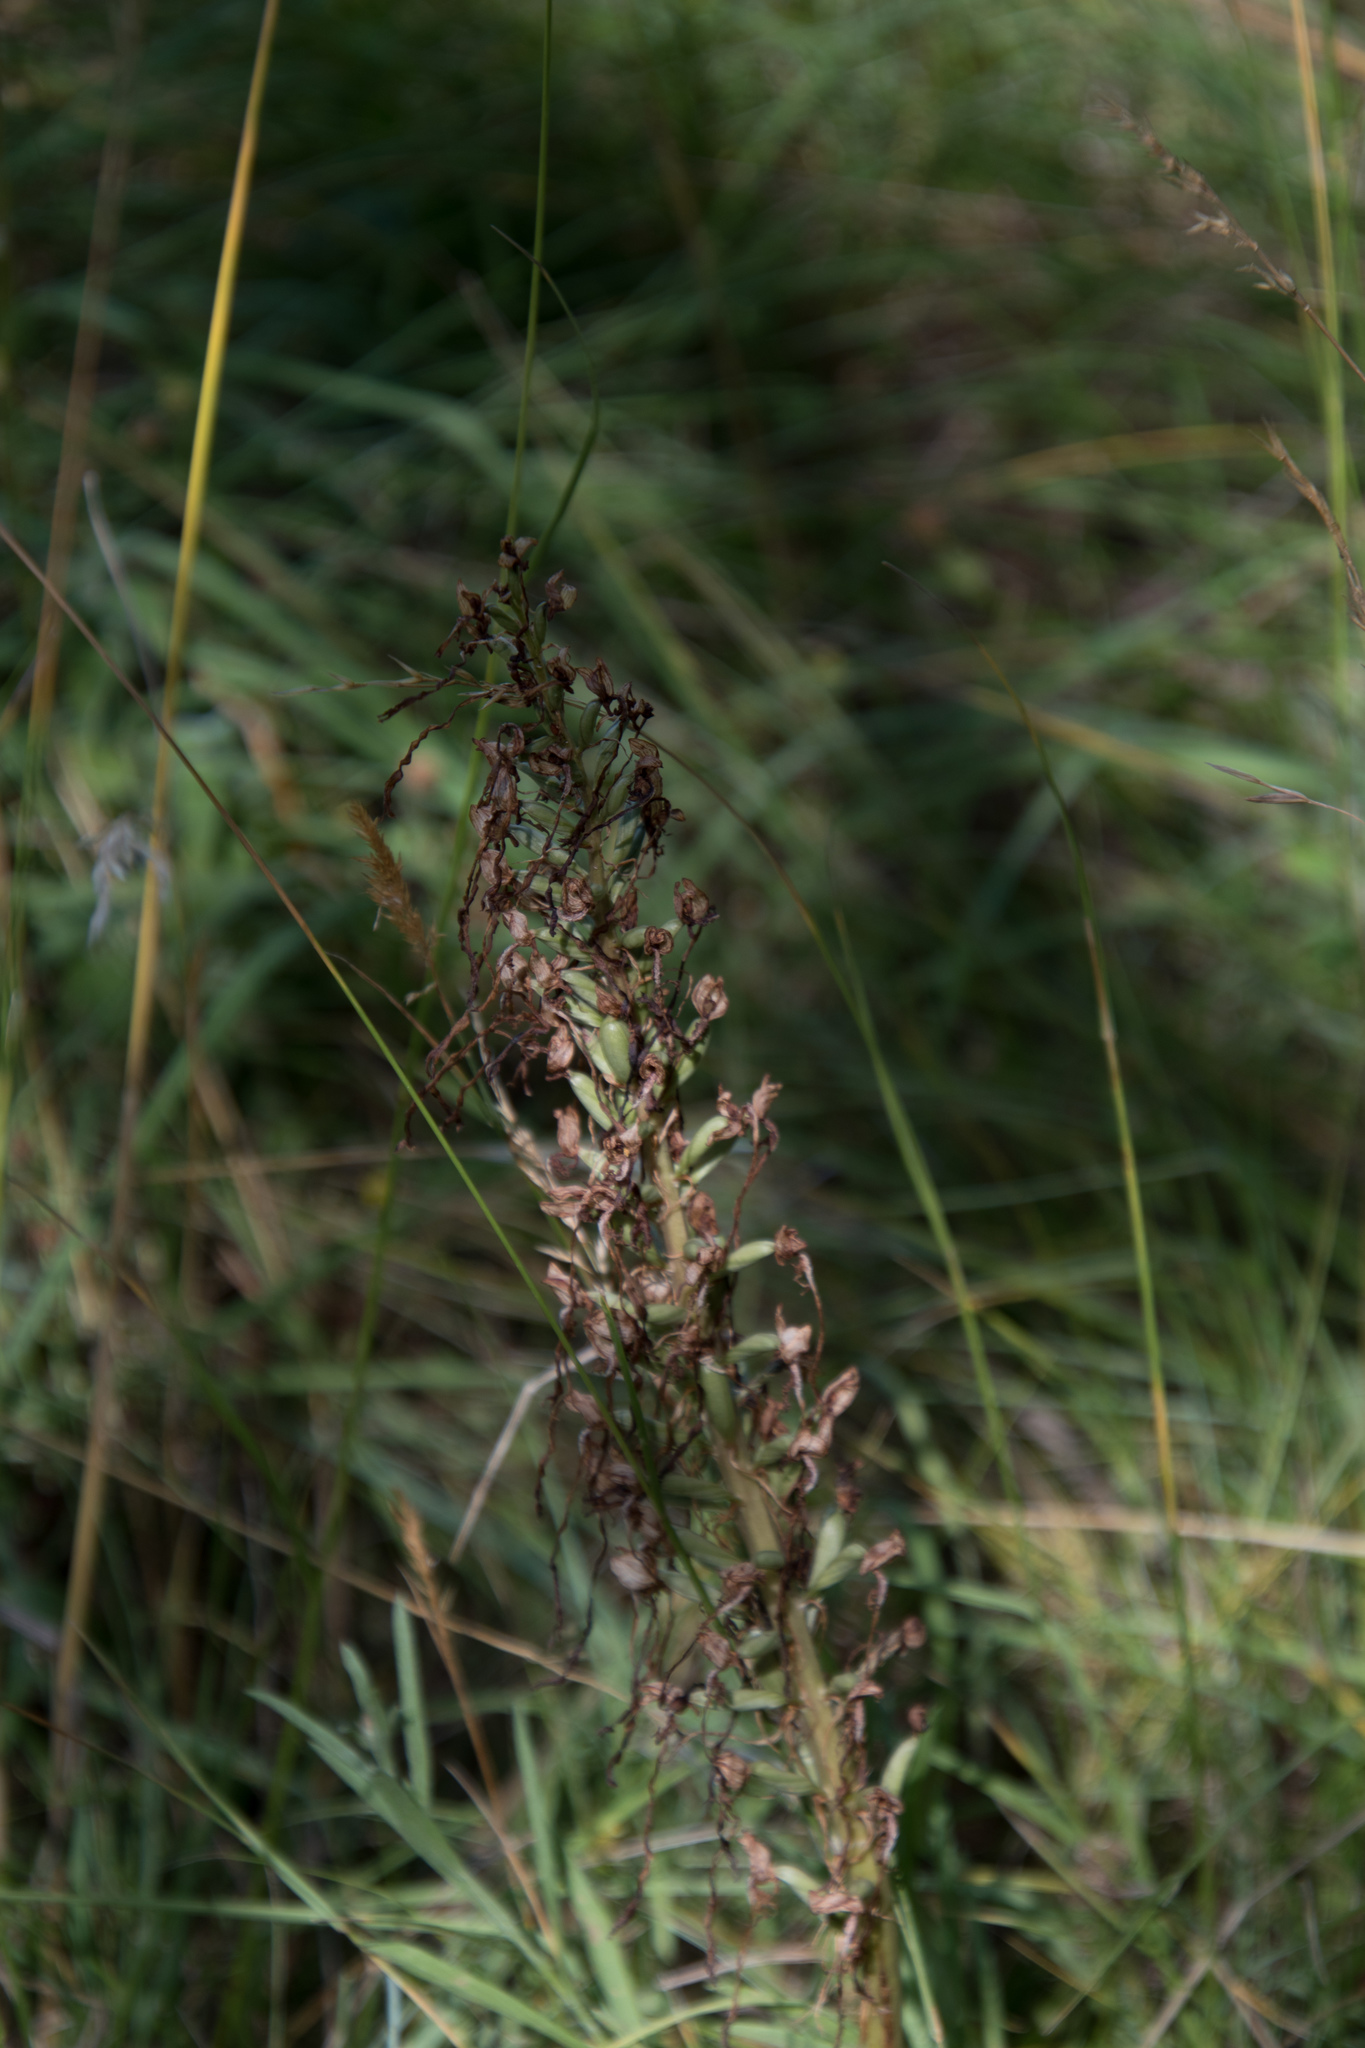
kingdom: Plantae
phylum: Tracheophyta
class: Liliopsida
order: Asparagales
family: Orchidaceae
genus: Himantoglossum
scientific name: Himantoglossum hircinum
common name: Lizard orchid
